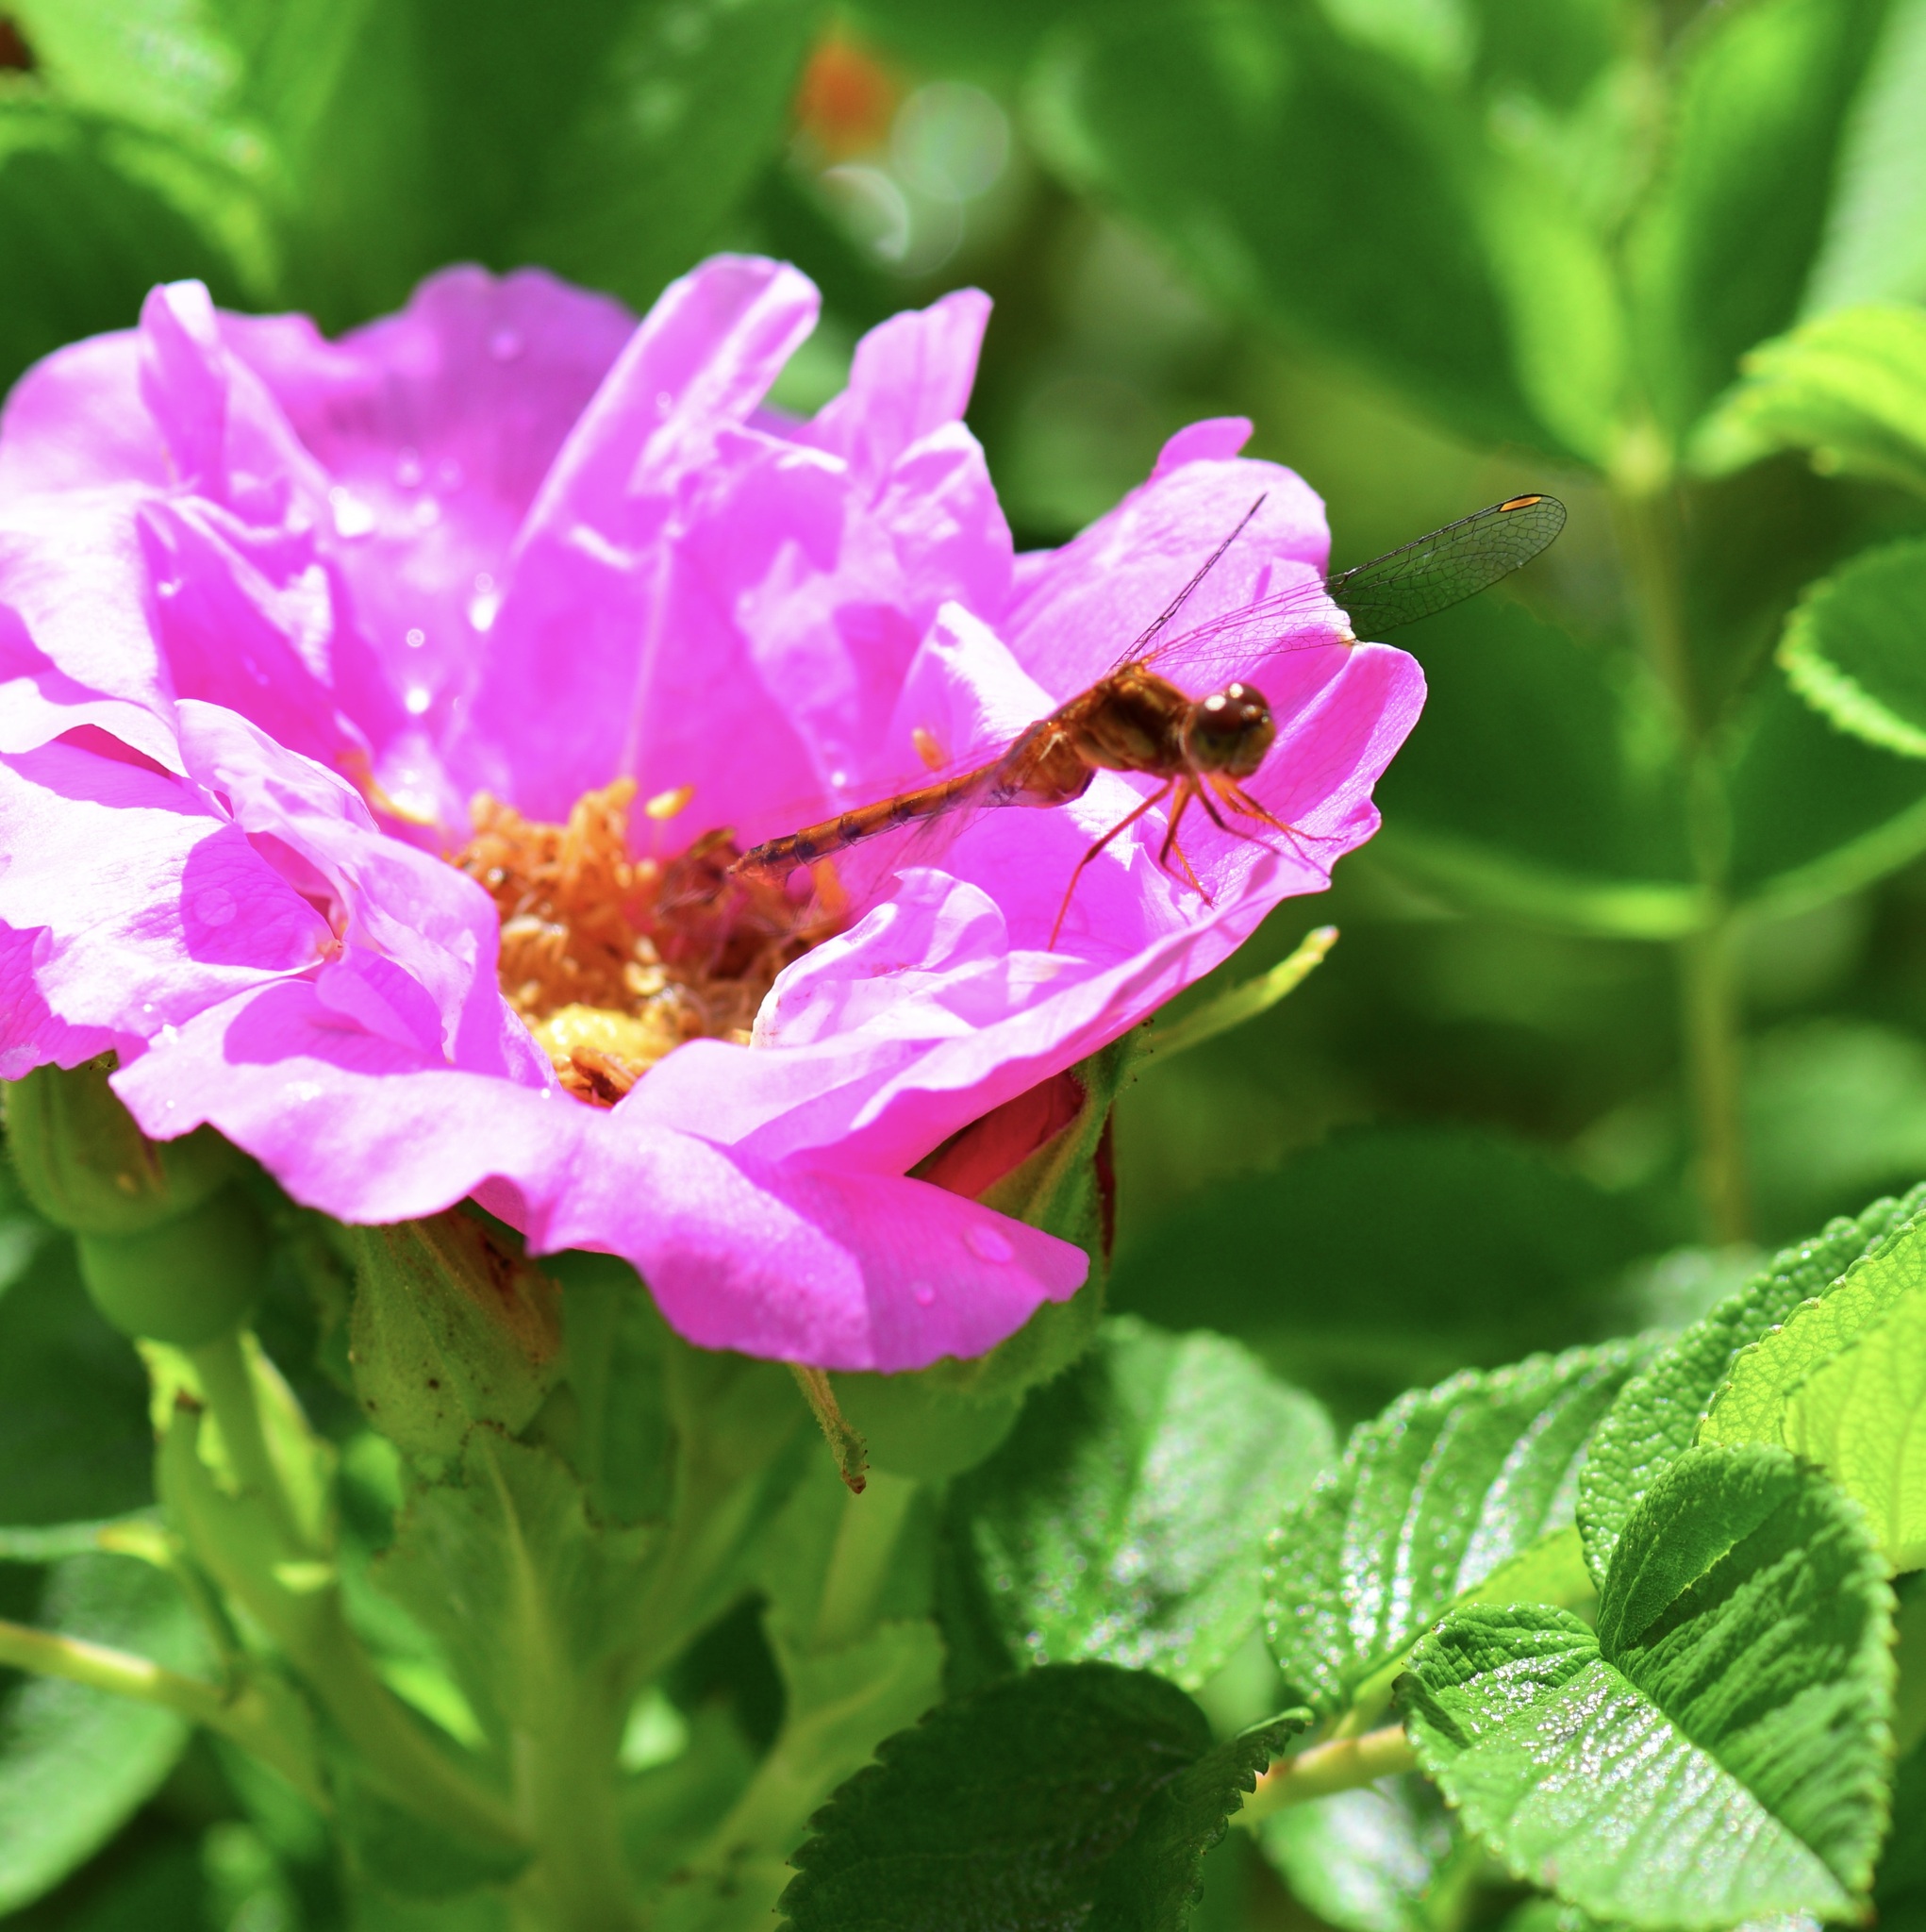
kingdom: Animalia
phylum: Arthropoda
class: Insecta
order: Odonata
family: Libellulidae
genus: Sympetrum
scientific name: Sympetrum vicinum
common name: Autumn meadowhawk
